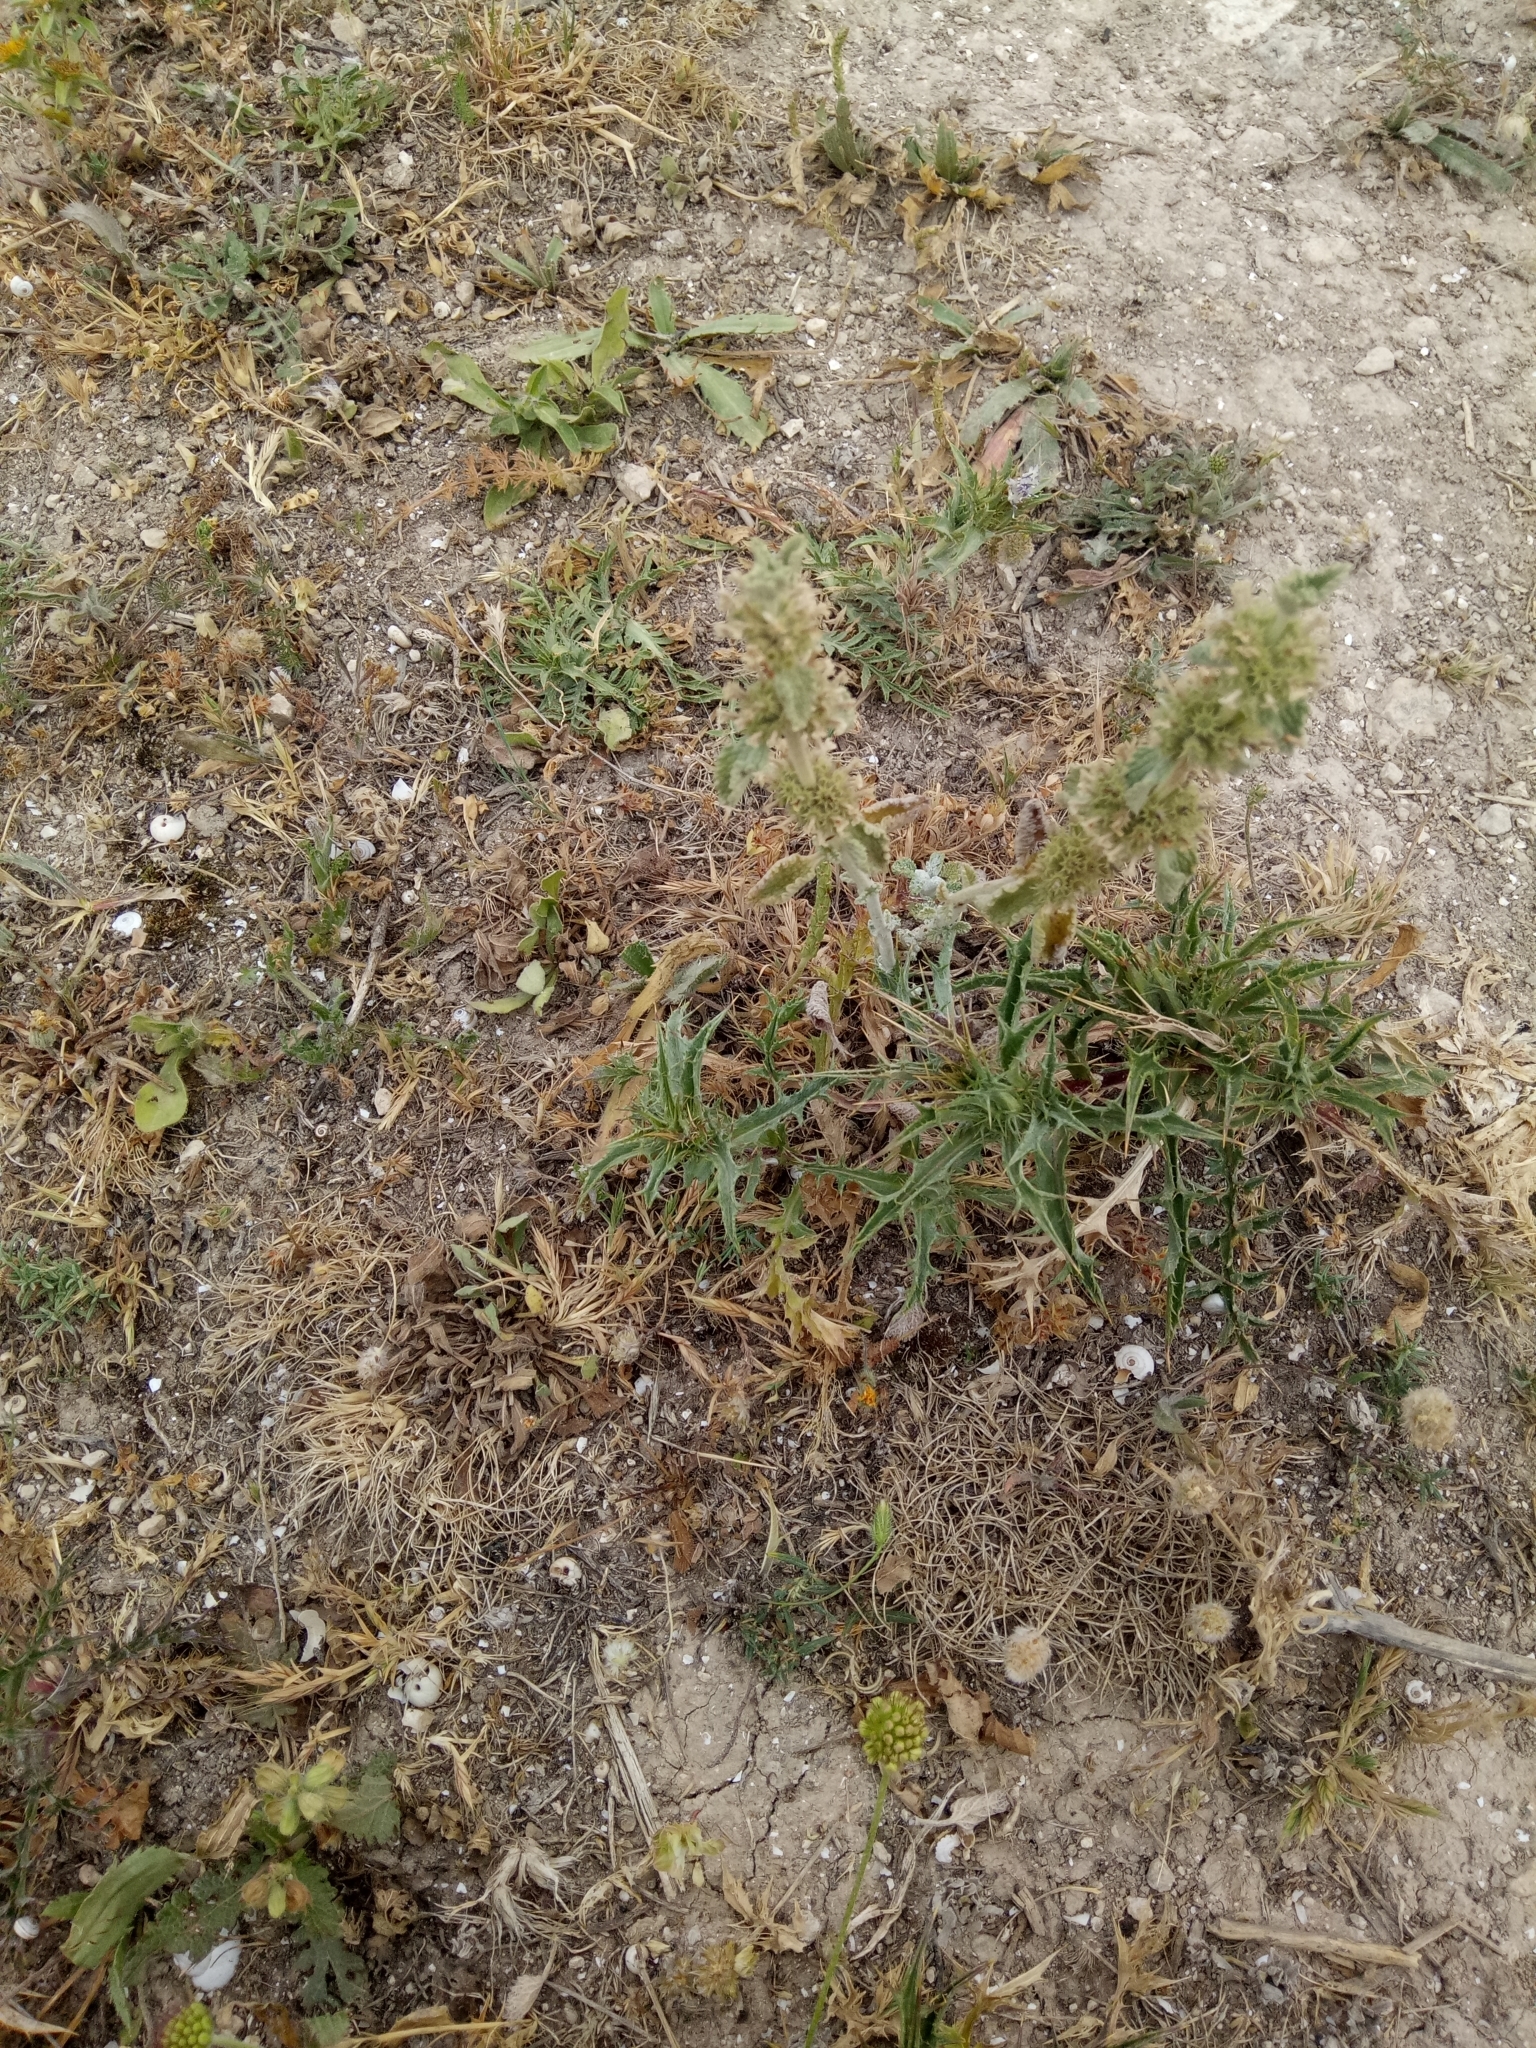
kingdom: Plantae
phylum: Tracheophyta
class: Magnoliopsida
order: Lamiales
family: Lamiaceae
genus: Marrubium
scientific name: Marrubium vulgare
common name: Horehound
